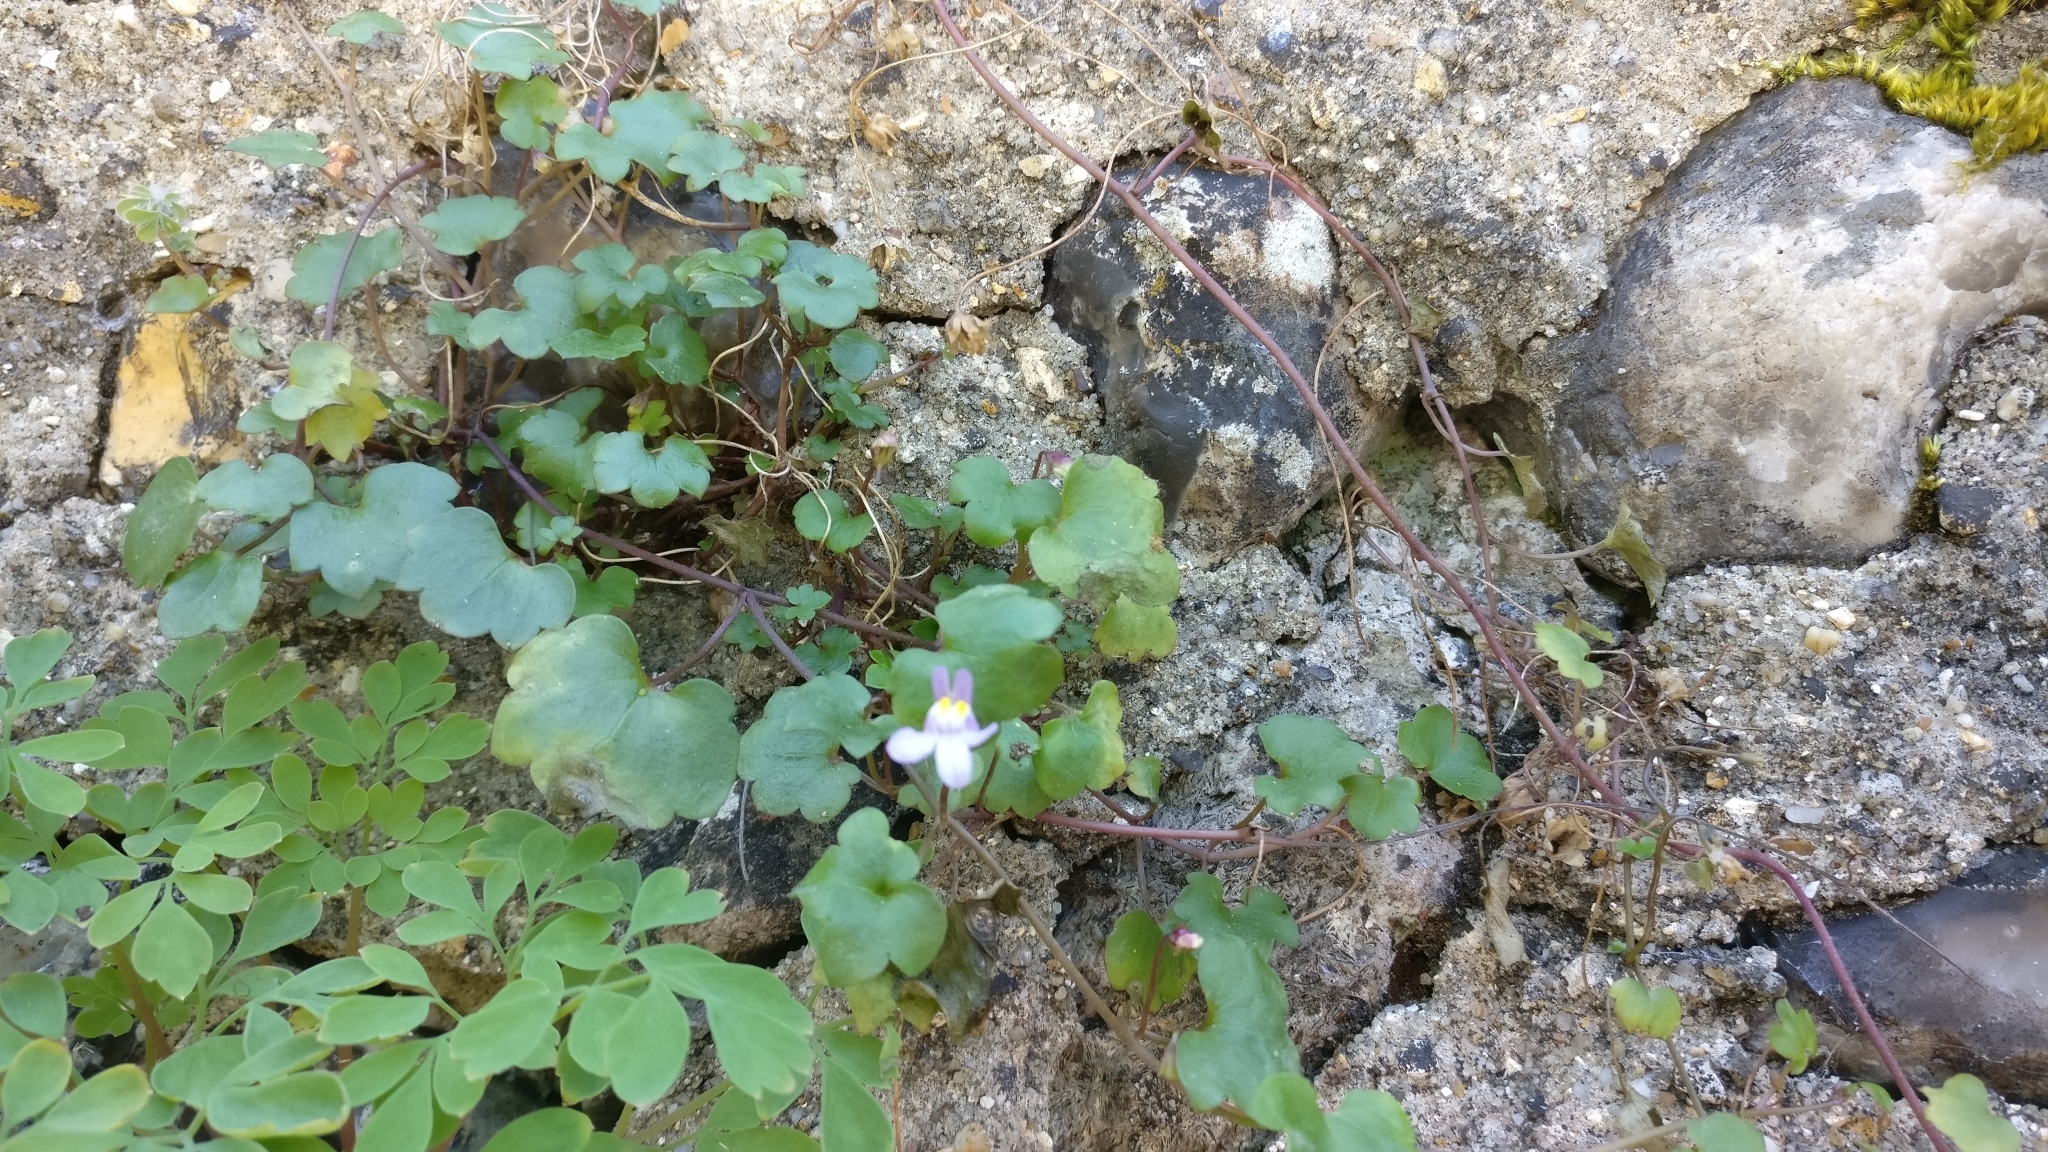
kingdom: Plantae
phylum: Tracheophyta
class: Magnoliopsida
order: Lamiales
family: Plantaginaceae
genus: Cymbalaria
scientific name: Cymbalaria muralis
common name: Ivy-leaved toadflax
